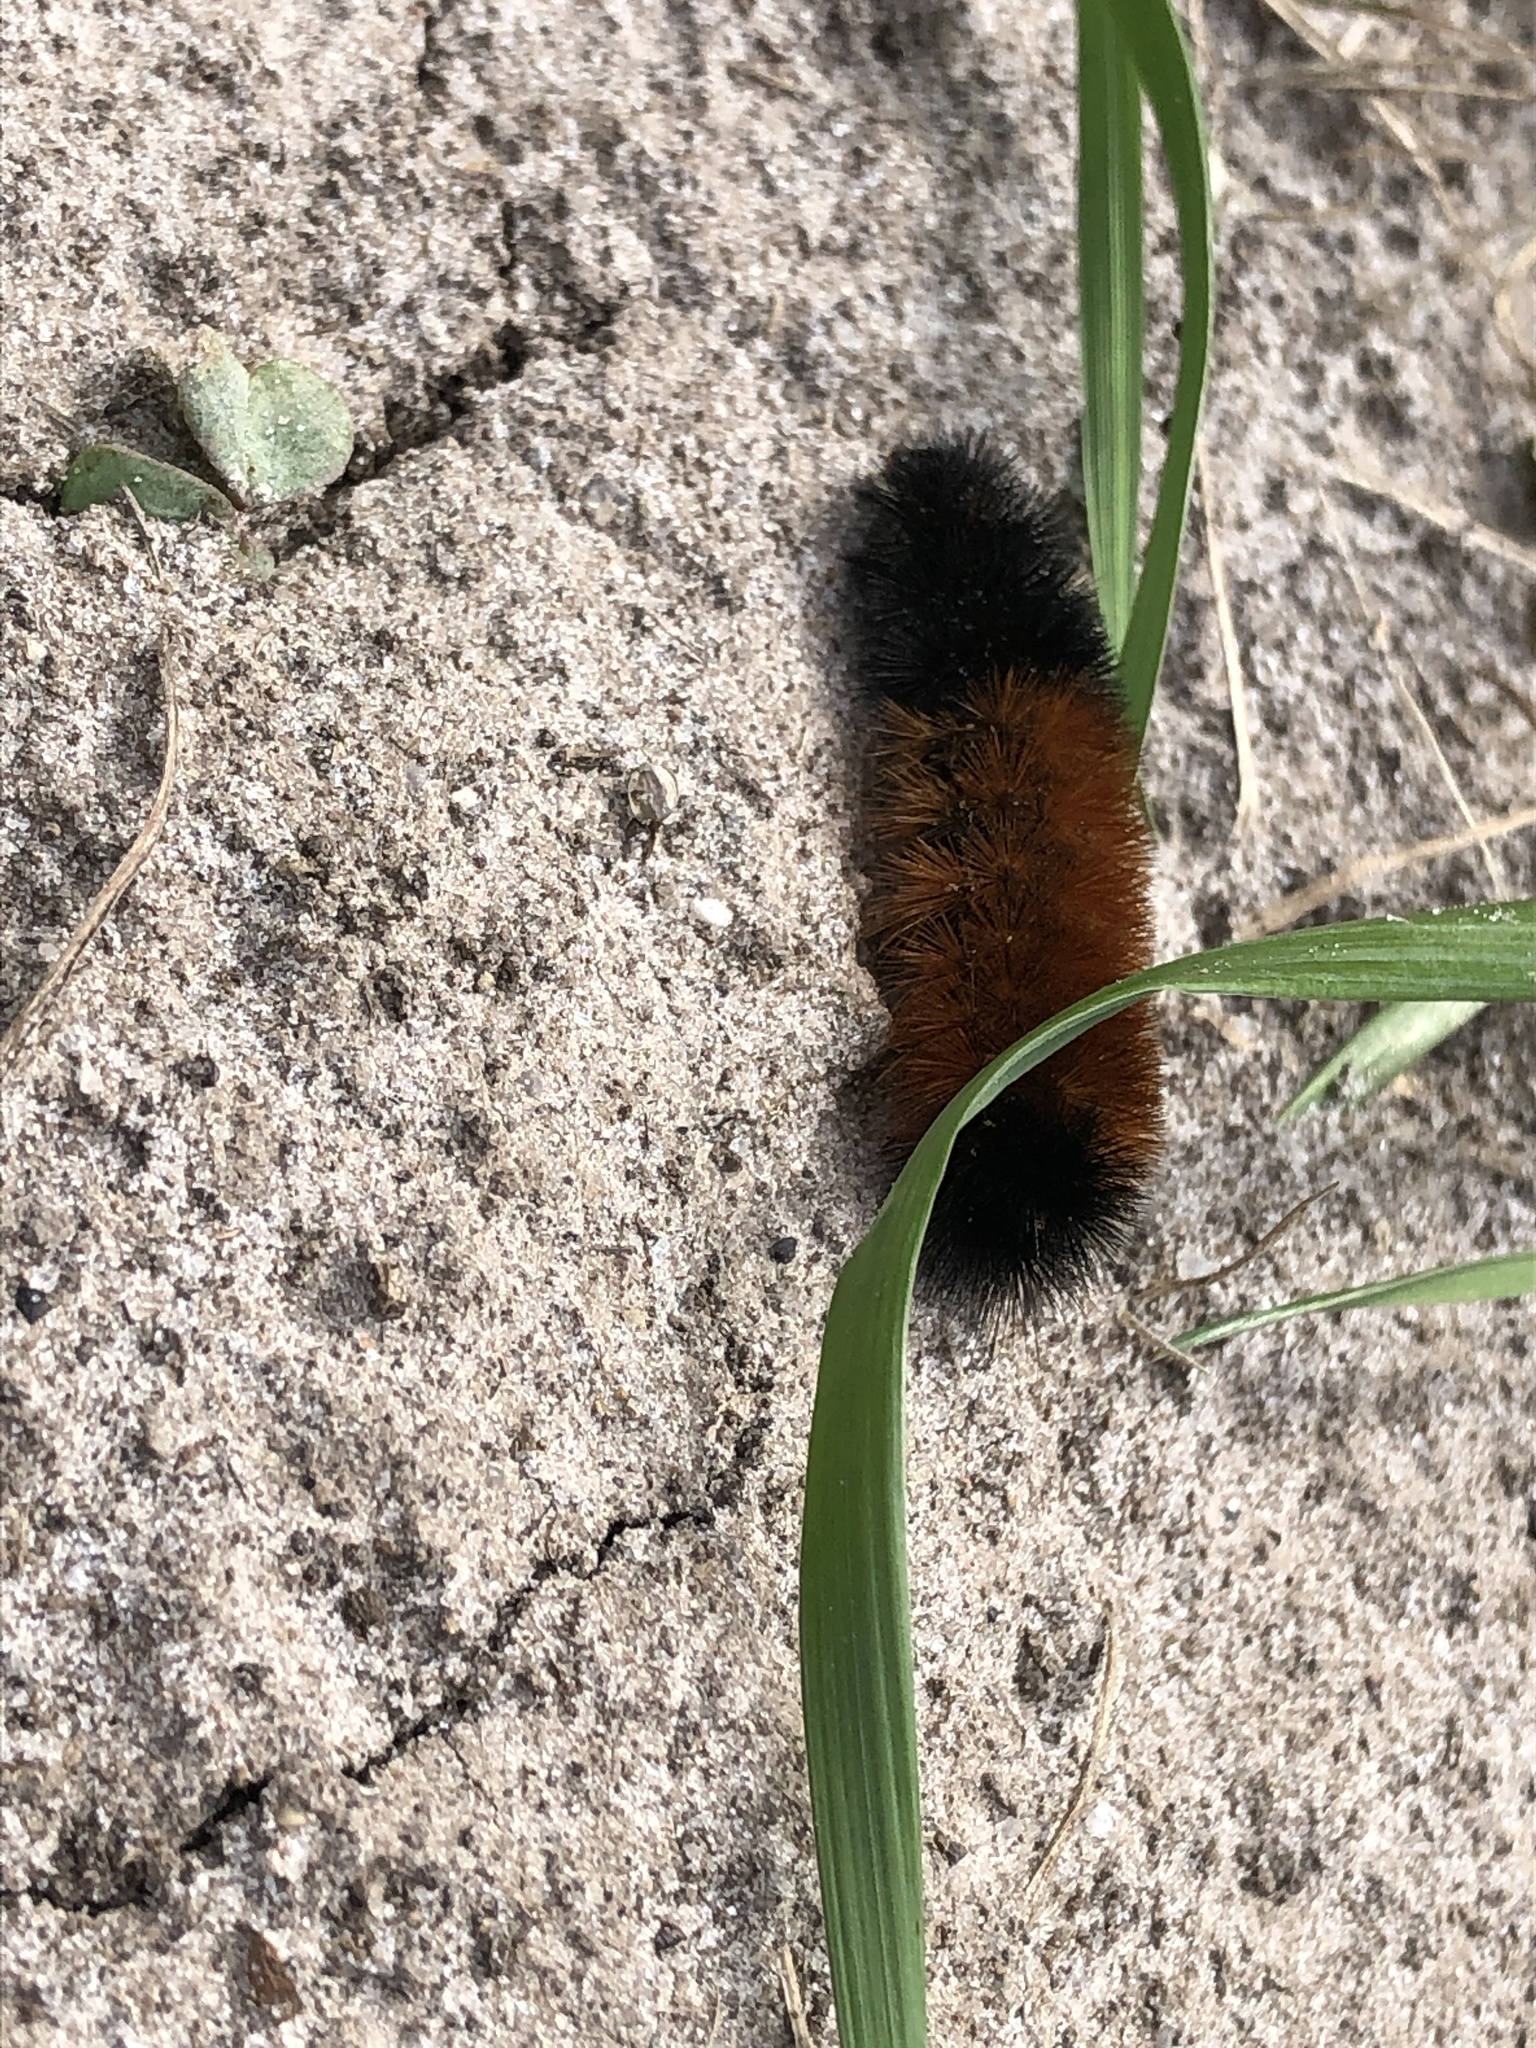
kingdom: Animalia
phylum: Arthropoda
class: Insecta
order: Lepidoptera
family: Erebidae
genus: Pyrrharctia
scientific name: Pyrrharctia isabella
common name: Isabella tiger moth
